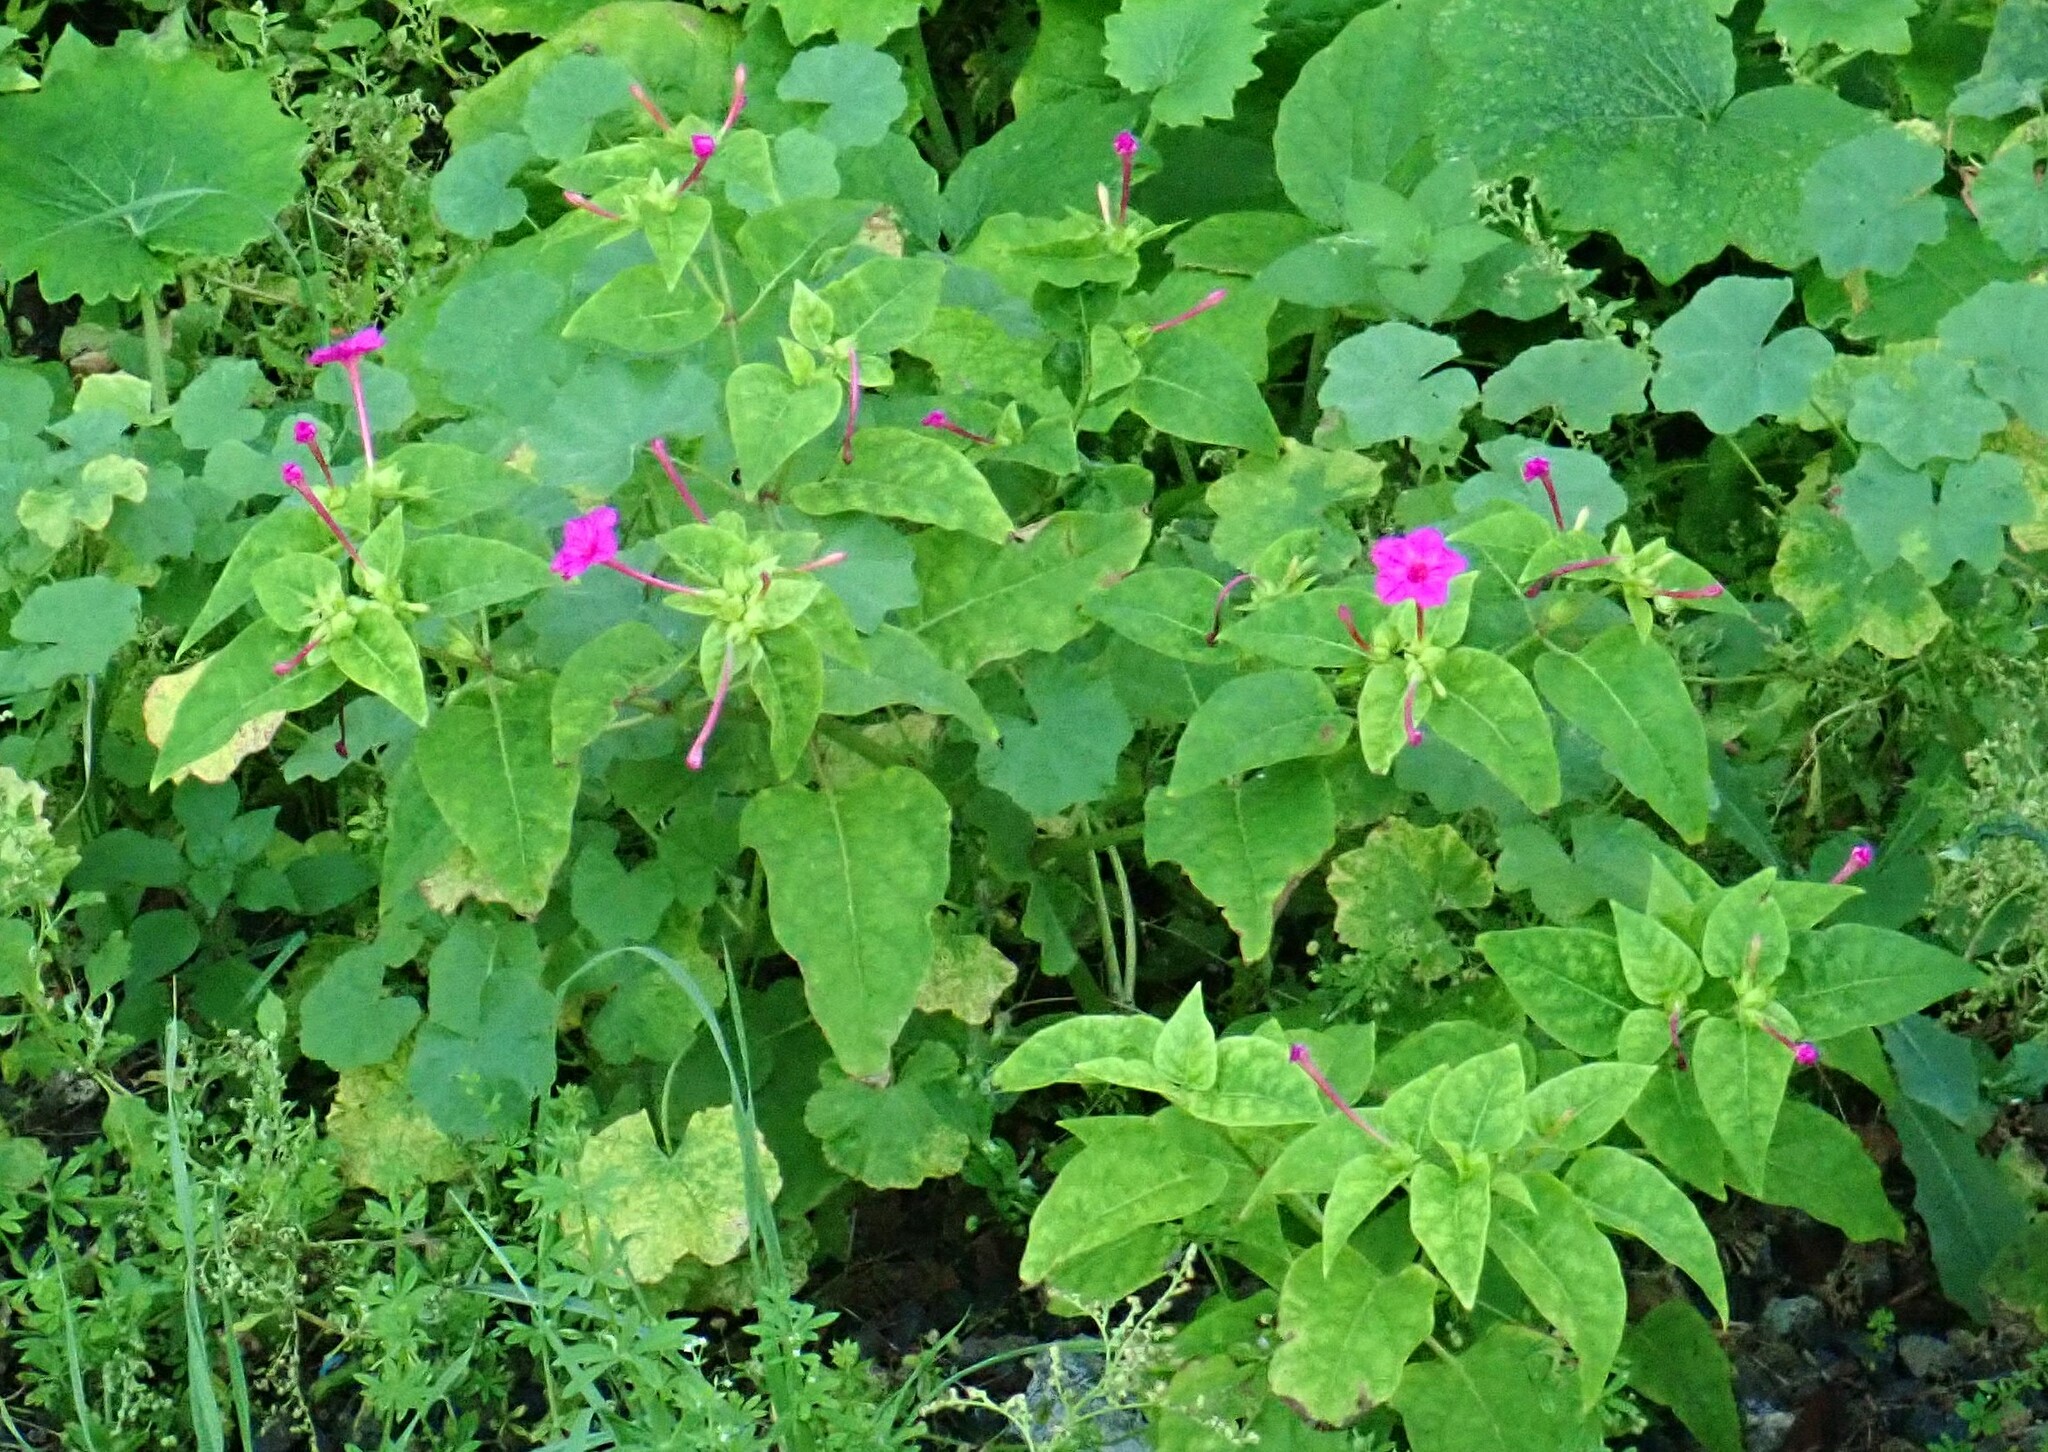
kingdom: Plantae
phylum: Tracheophyta
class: Magnoliopsida
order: Caryophyllales
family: Nyctaginaceae
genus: Mirabilis
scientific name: Mirabilis jalapa
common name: Marvel-of-peru
